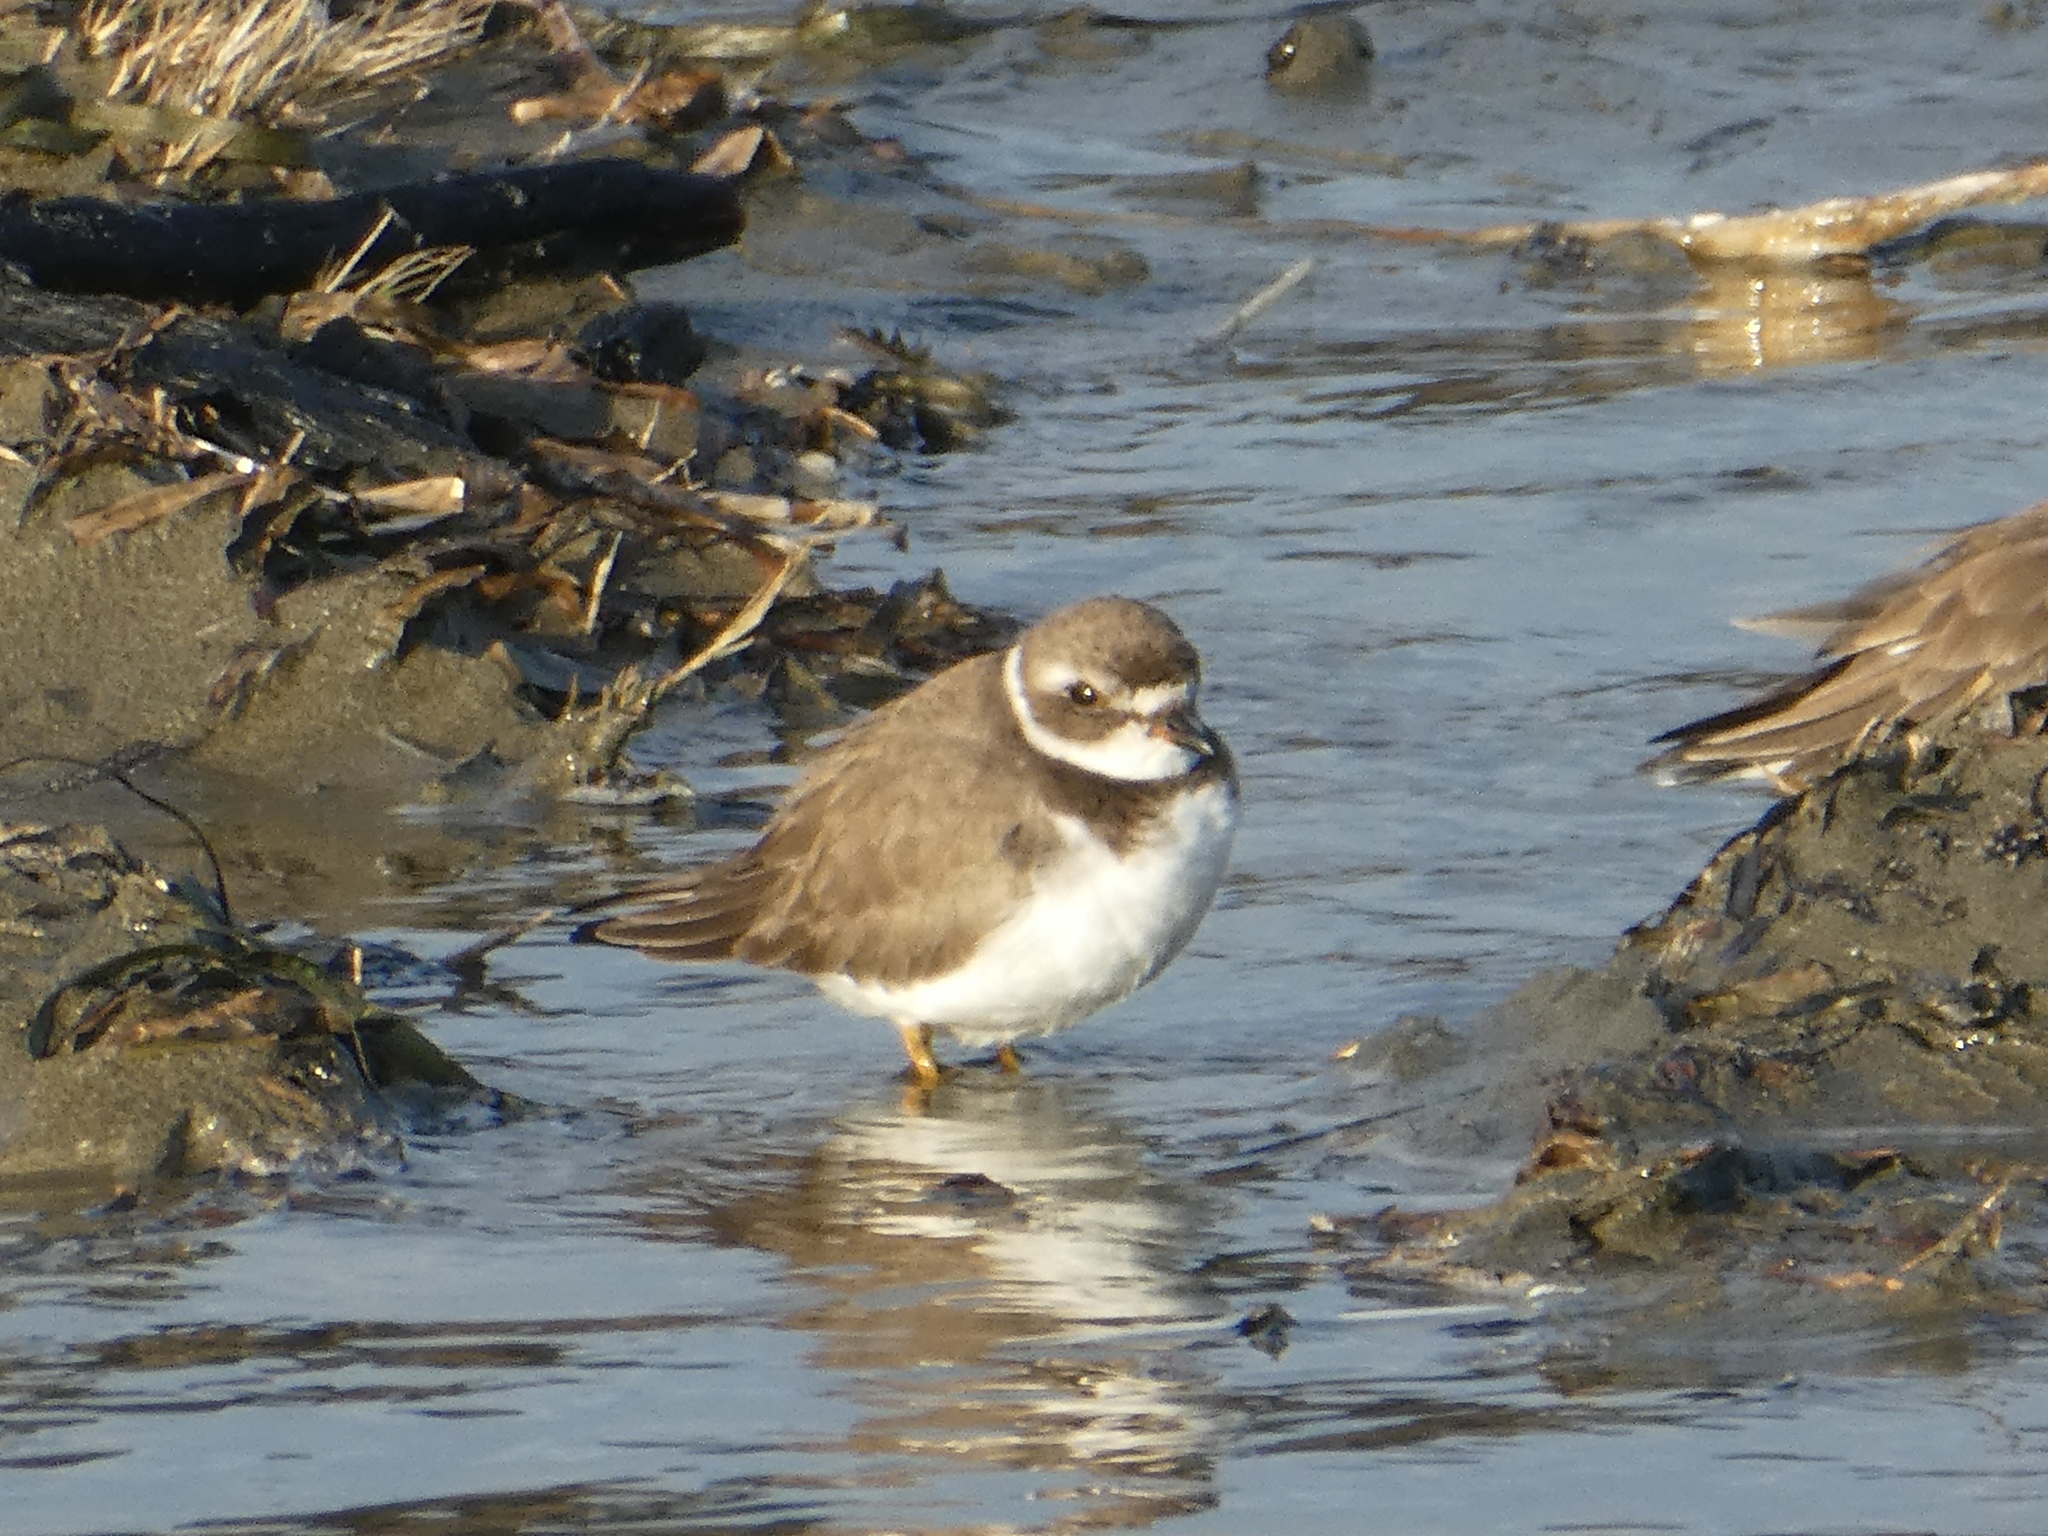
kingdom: Animalia
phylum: Chordata
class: Aves
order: Charadriiformes
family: Charadriidae
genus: Charadrius
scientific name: Charadrius semipalmatus
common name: Semipalmated plover
